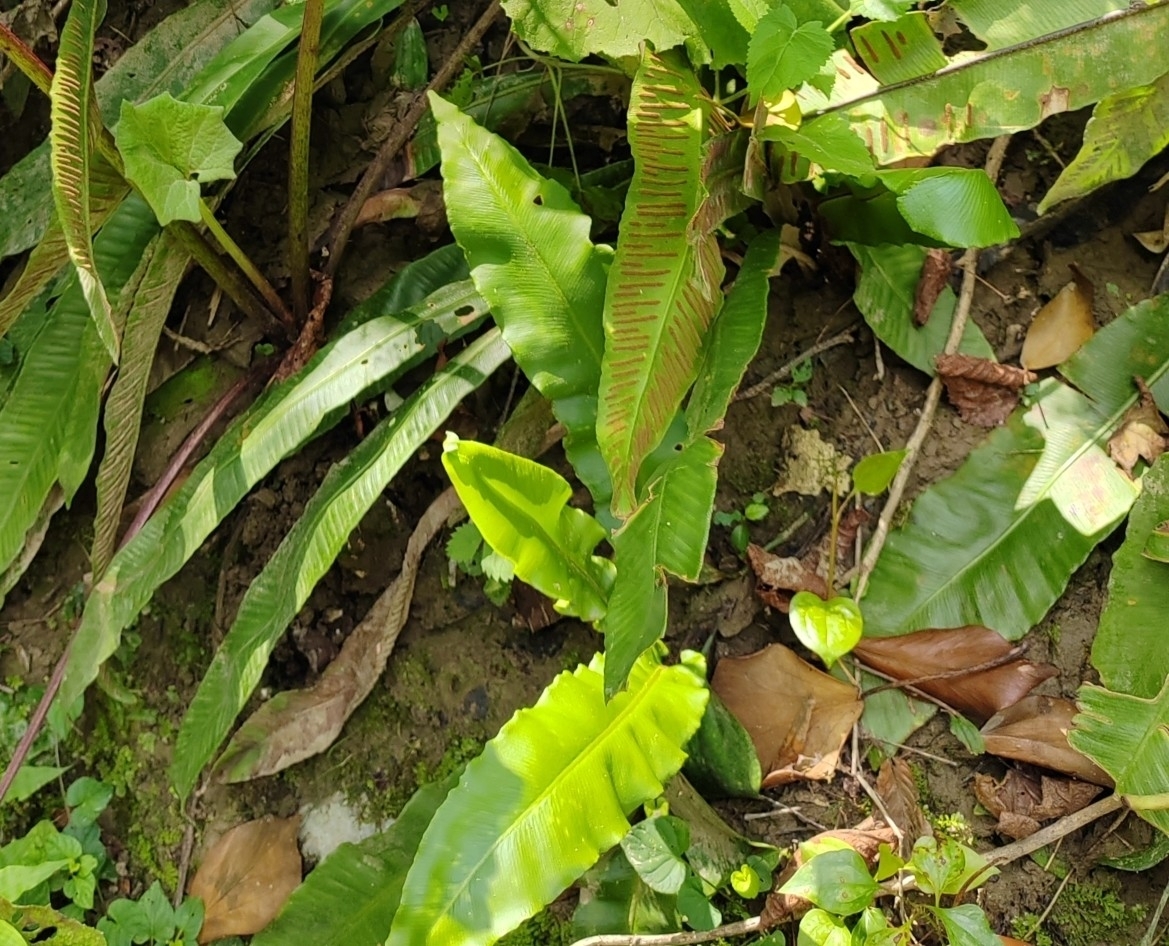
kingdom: Plantae
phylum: Tracheophyta
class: Polypodiopsida
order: Polypodiales
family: Aspleniaceae
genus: Asplenium
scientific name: Asplenium scolopendrium
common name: Hart's-tongue fern
